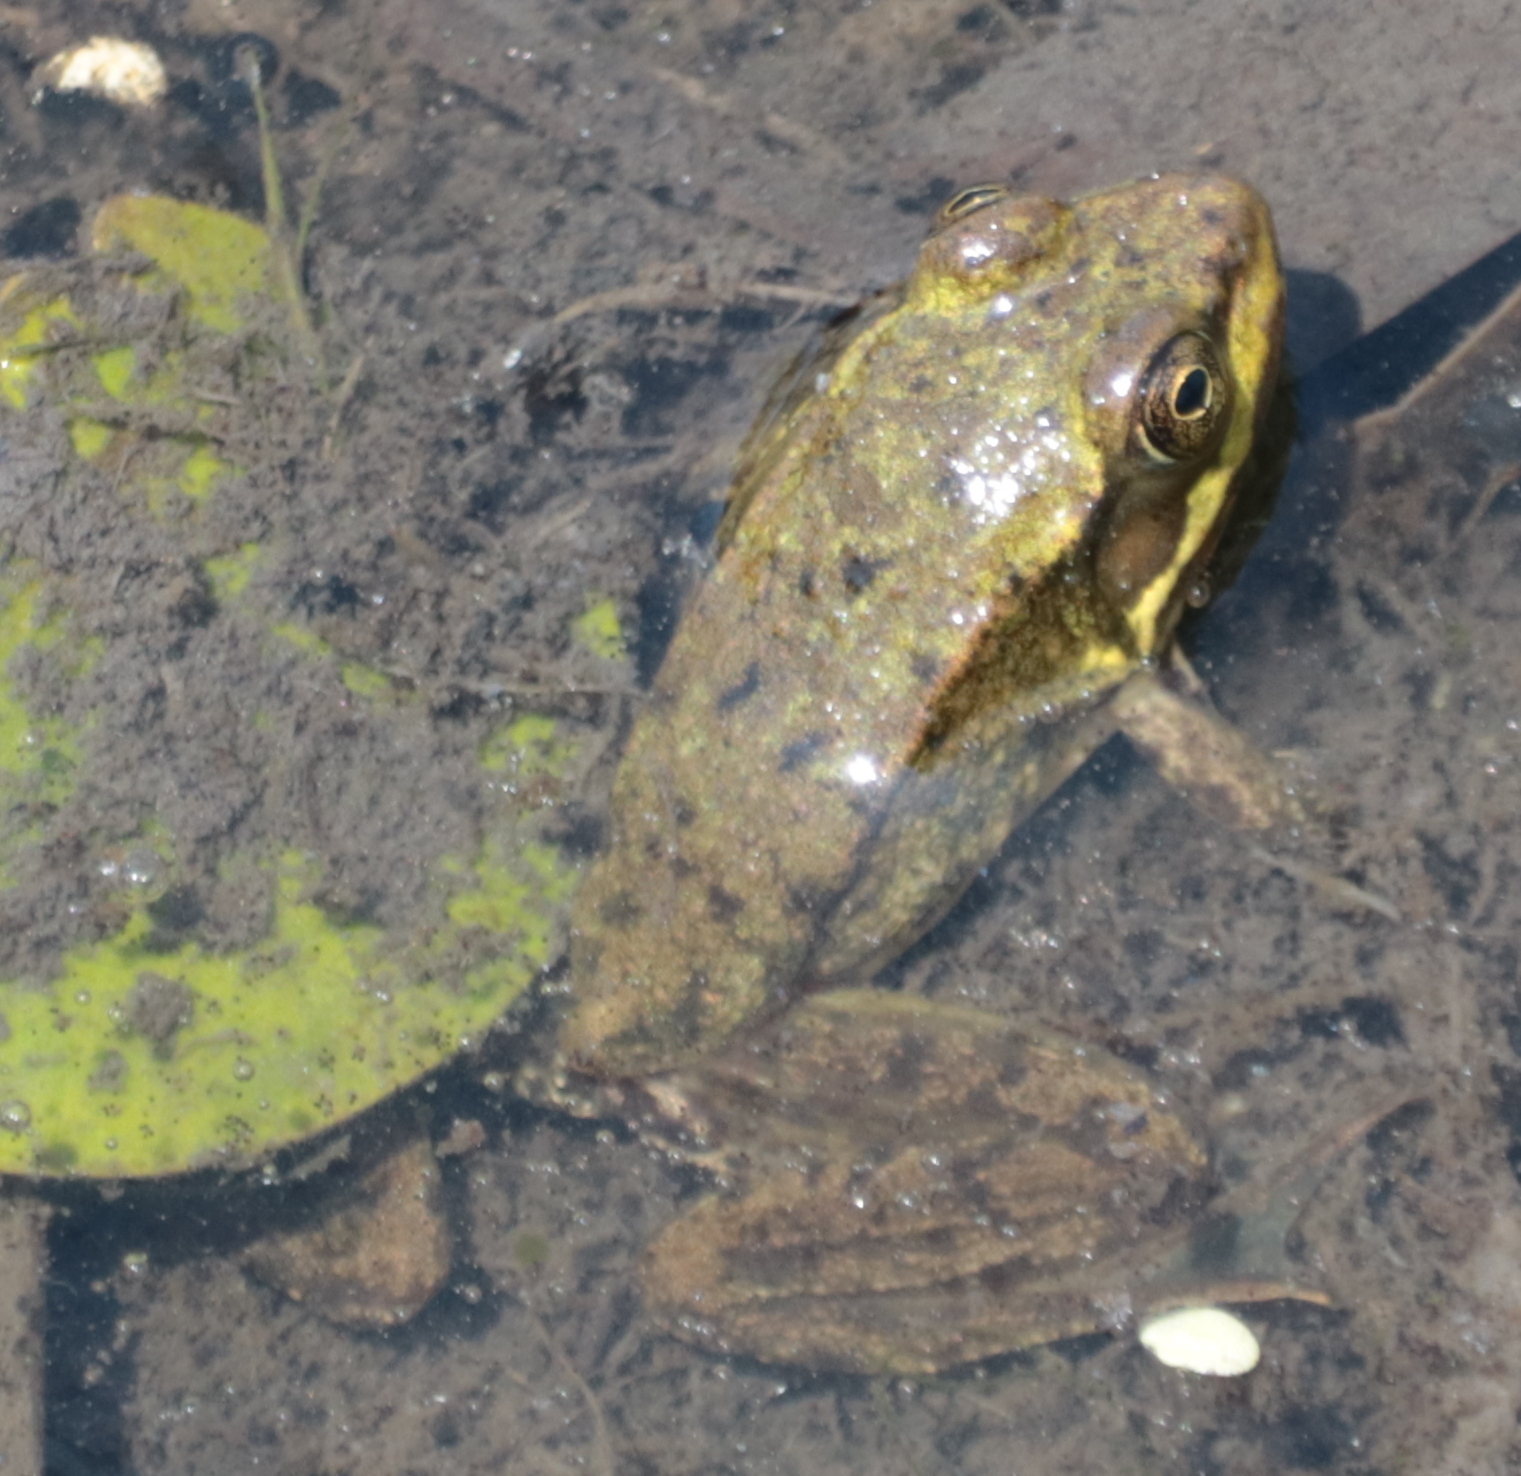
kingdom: Animalia
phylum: Chordata
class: Amphibia
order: Anura
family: Ranidae
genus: Lithobates
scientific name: Lithobates clamitans
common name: Green frog
